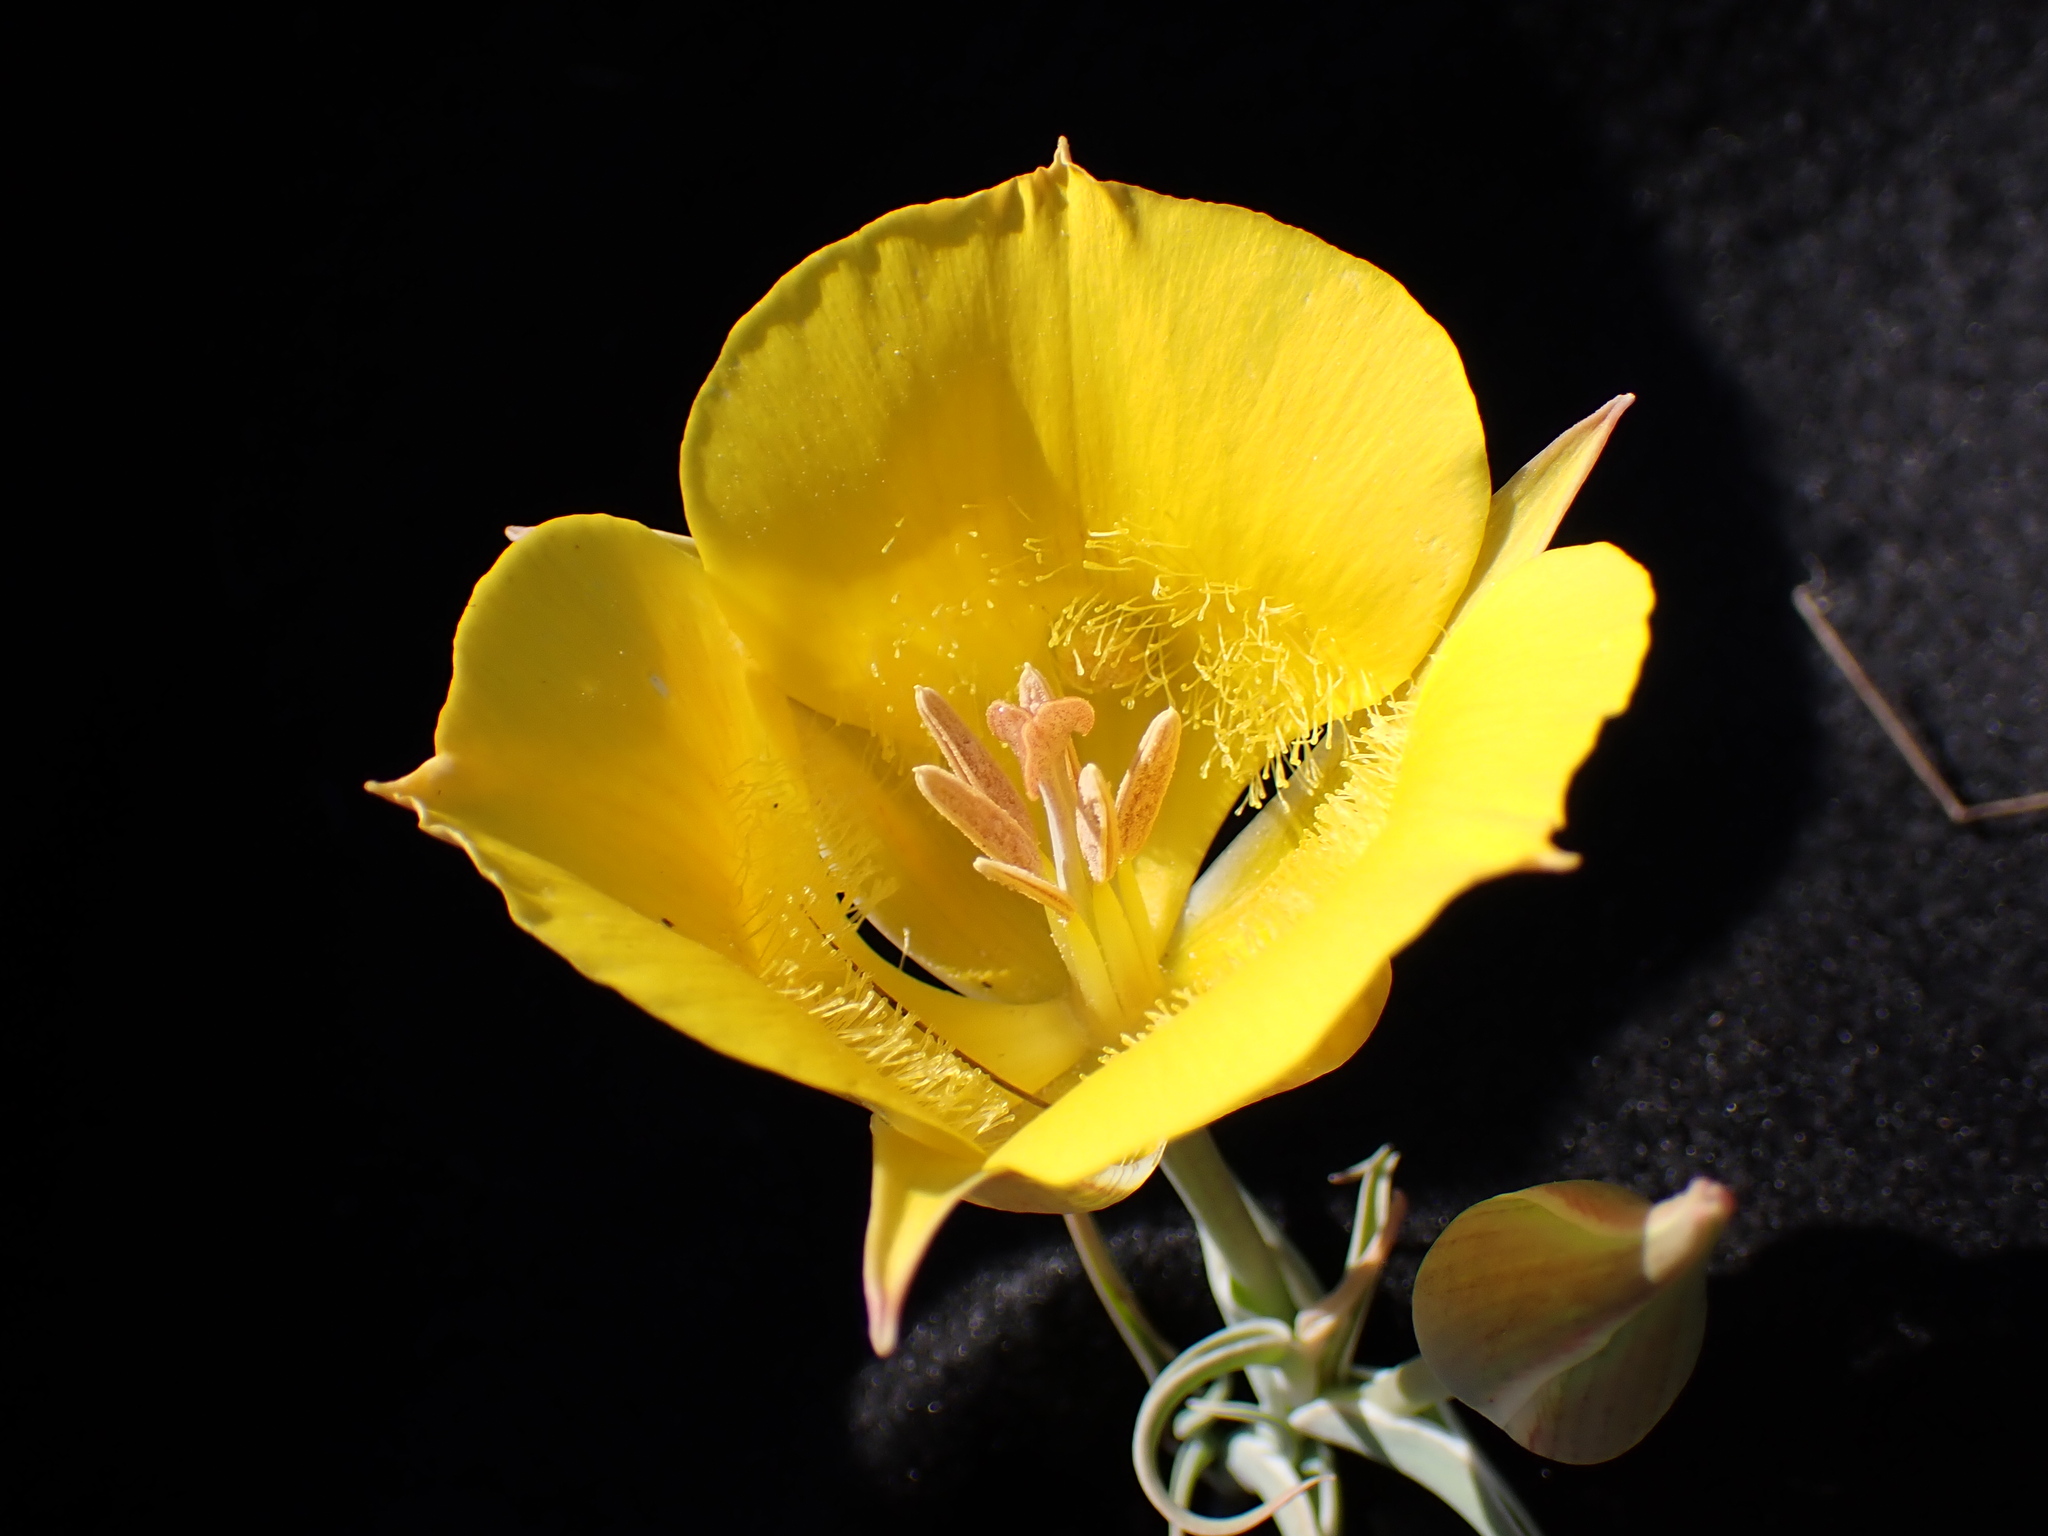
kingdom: Plantae
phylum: Tracheophyta
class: Liliopsida
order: Liliales
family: Liliaceae
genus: Calochortus
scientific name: Calochortus clavatus
